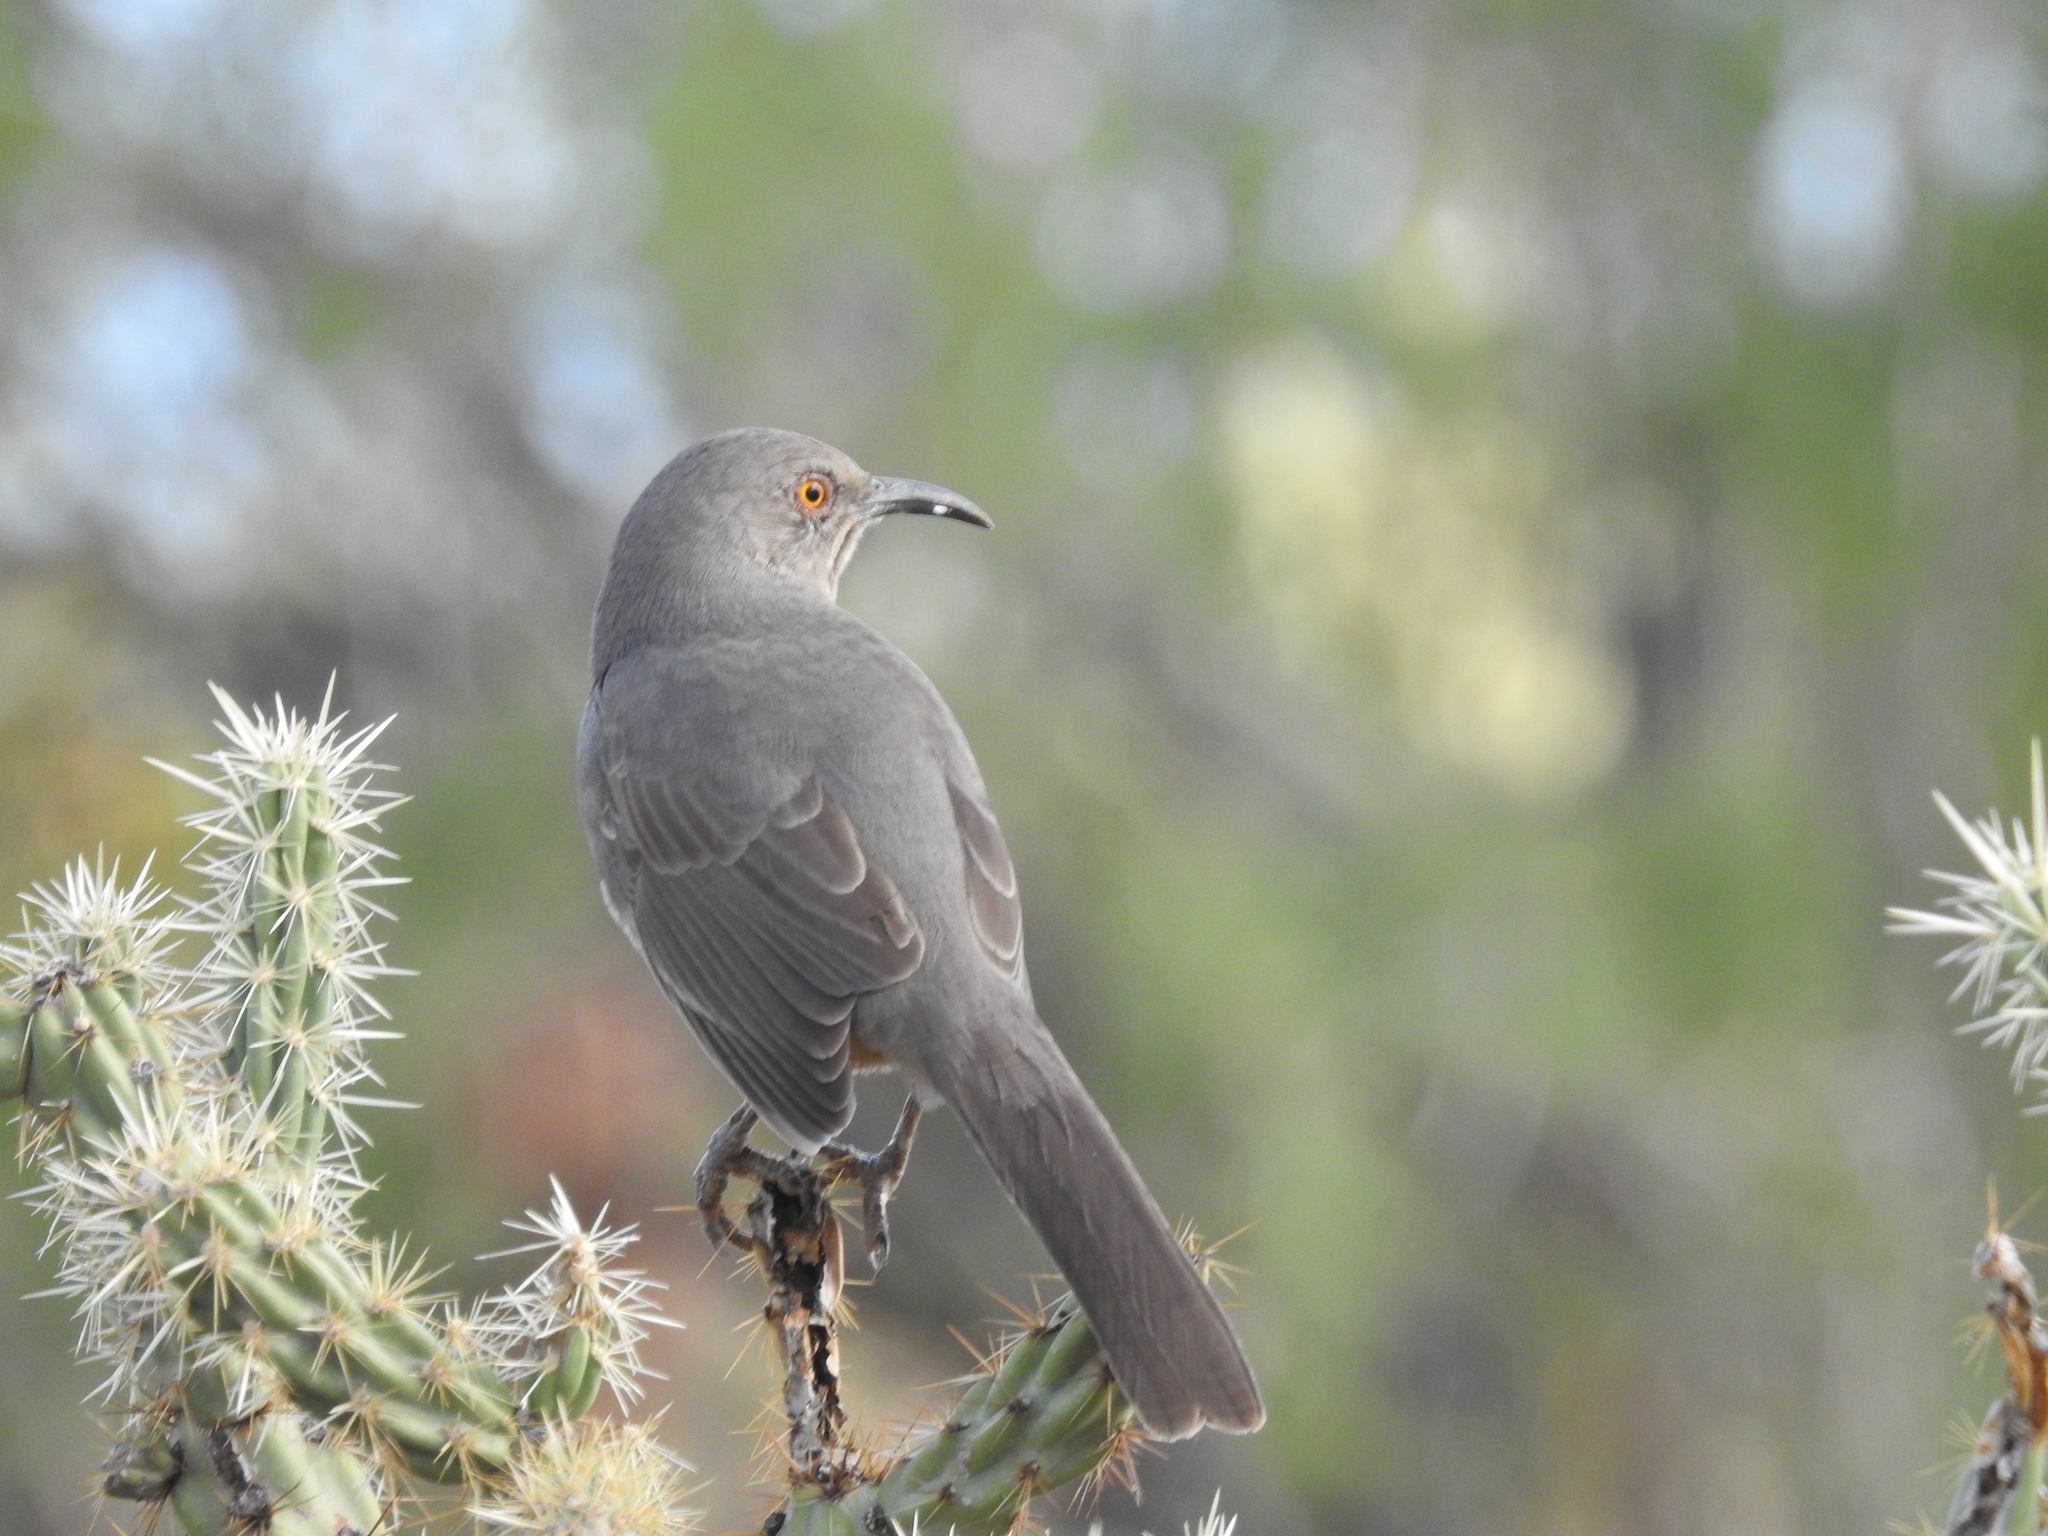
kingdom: Animalia
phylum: Chordata
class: Aves
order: Passeriformes
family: Mimidae
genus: Toxostoma
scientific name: Toxostoma curvirostre
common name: Curve-billed thrasher
